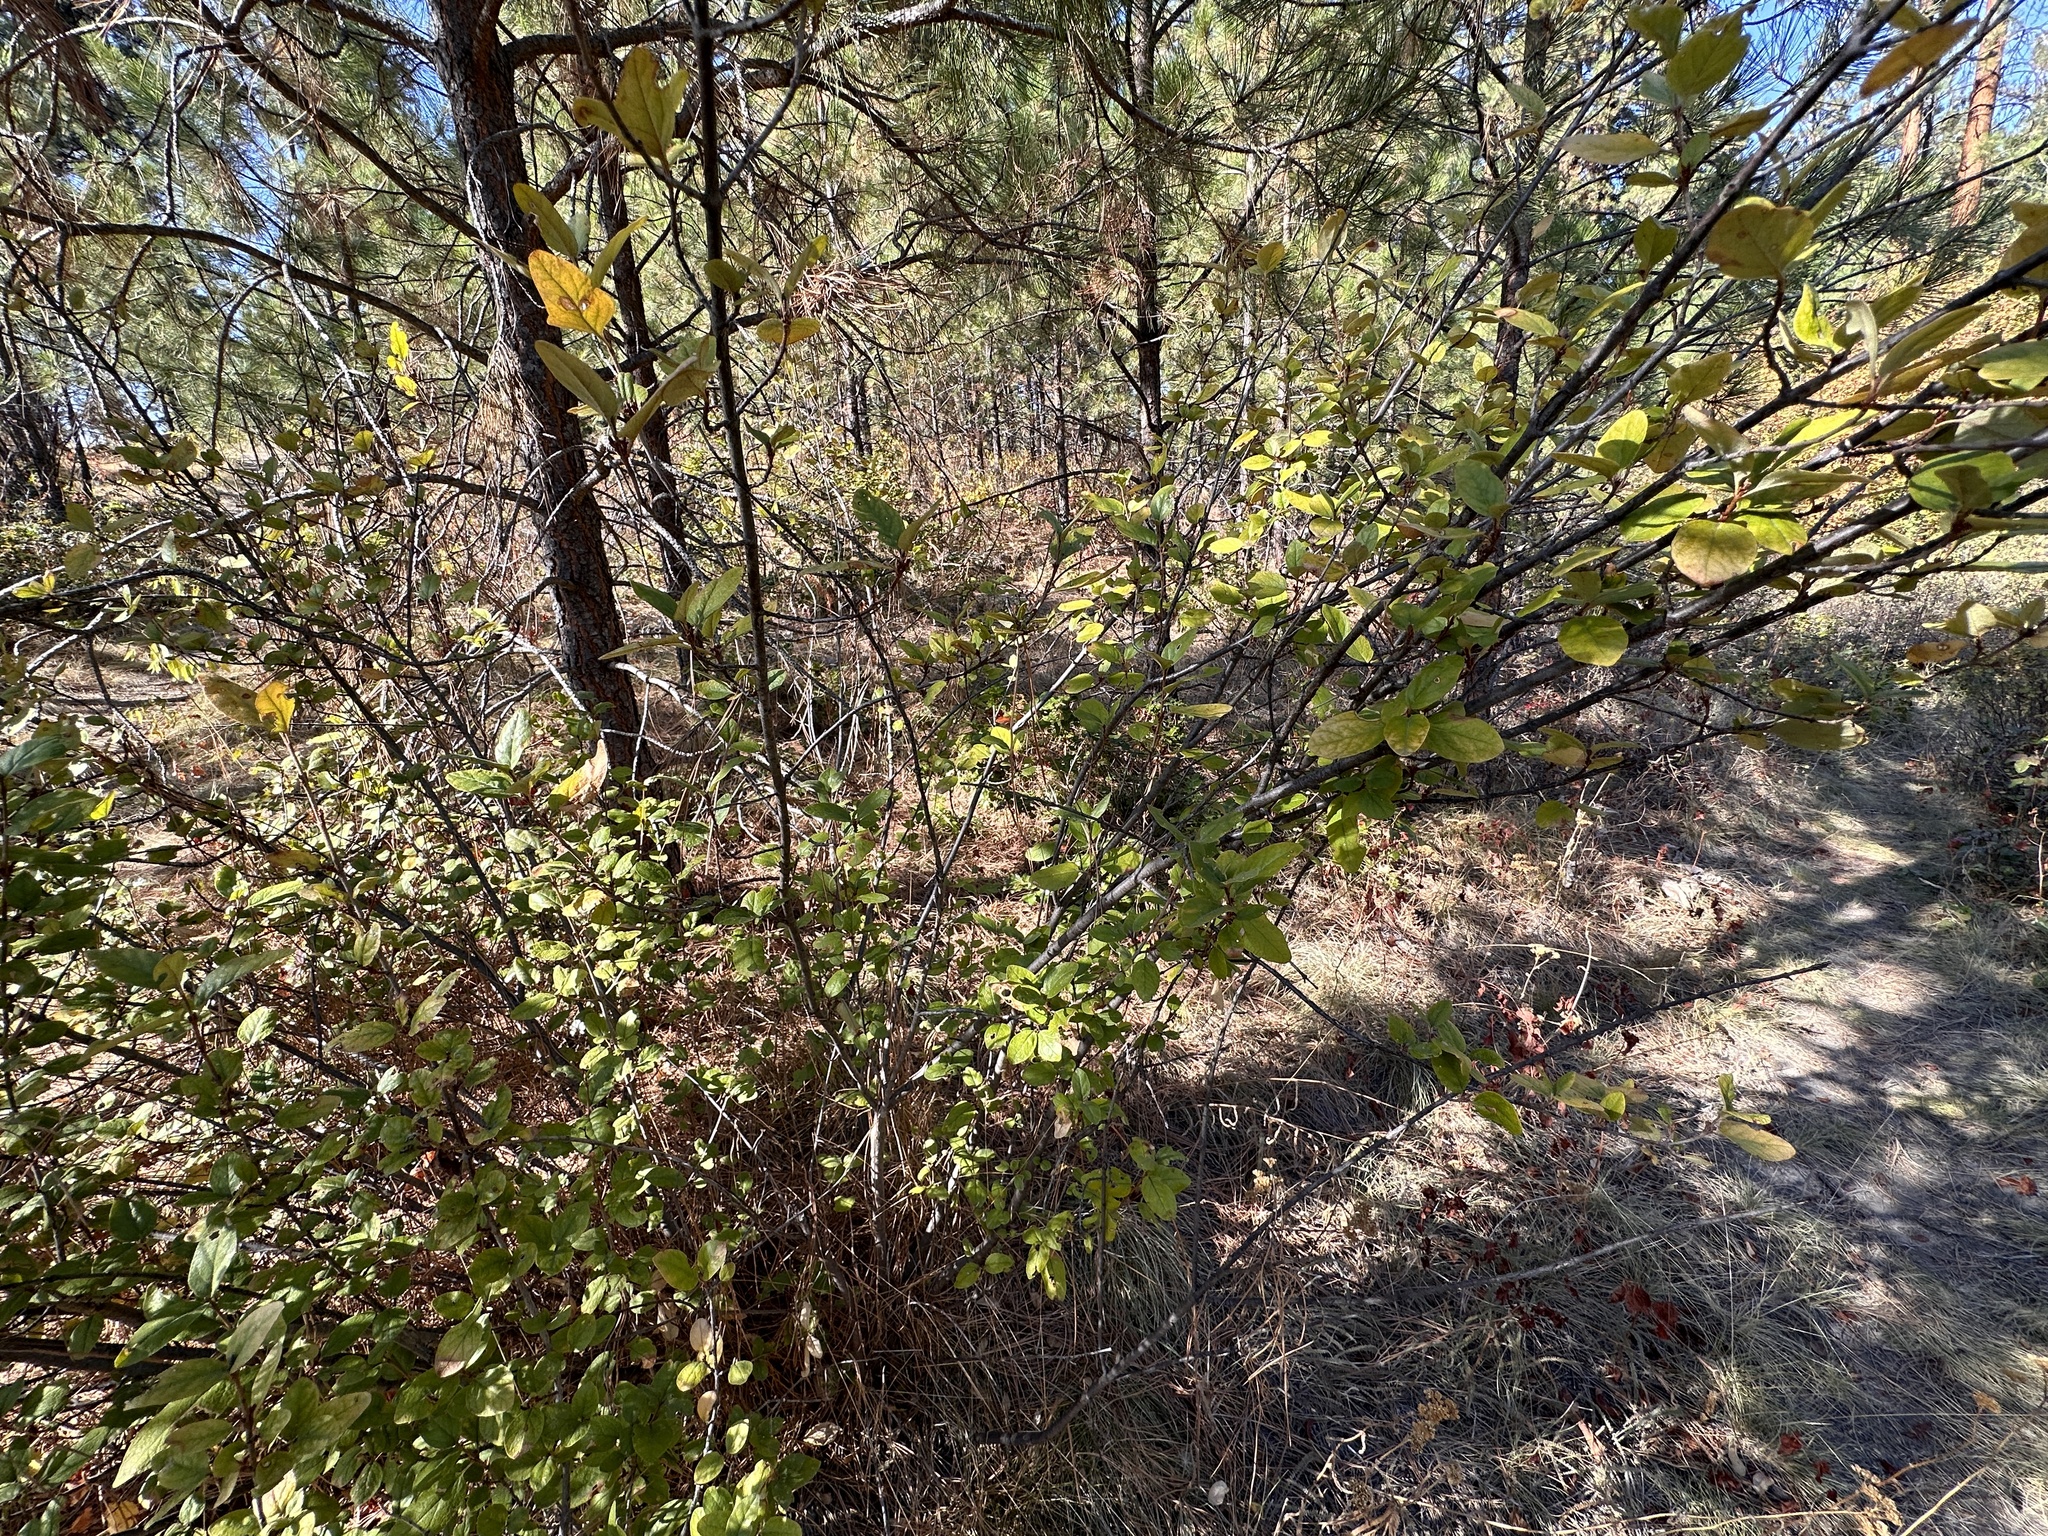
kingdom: Plantae
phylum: Tracheophyta
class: Magnoliopsida
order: Rosales
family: Elaeagnaceae
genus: Shepherdia
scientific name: Shepherdia canadensis
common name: Soapberry
